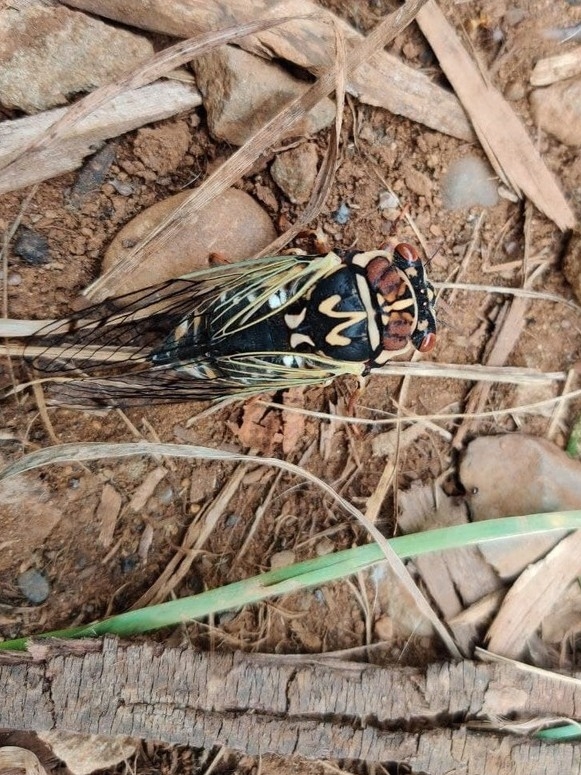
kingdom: Animalia
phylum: Arthropoda
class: Insecta
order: Hemiptera
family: Cicadidae
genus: Auritibicen
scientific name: Auritibicen bihamatus
